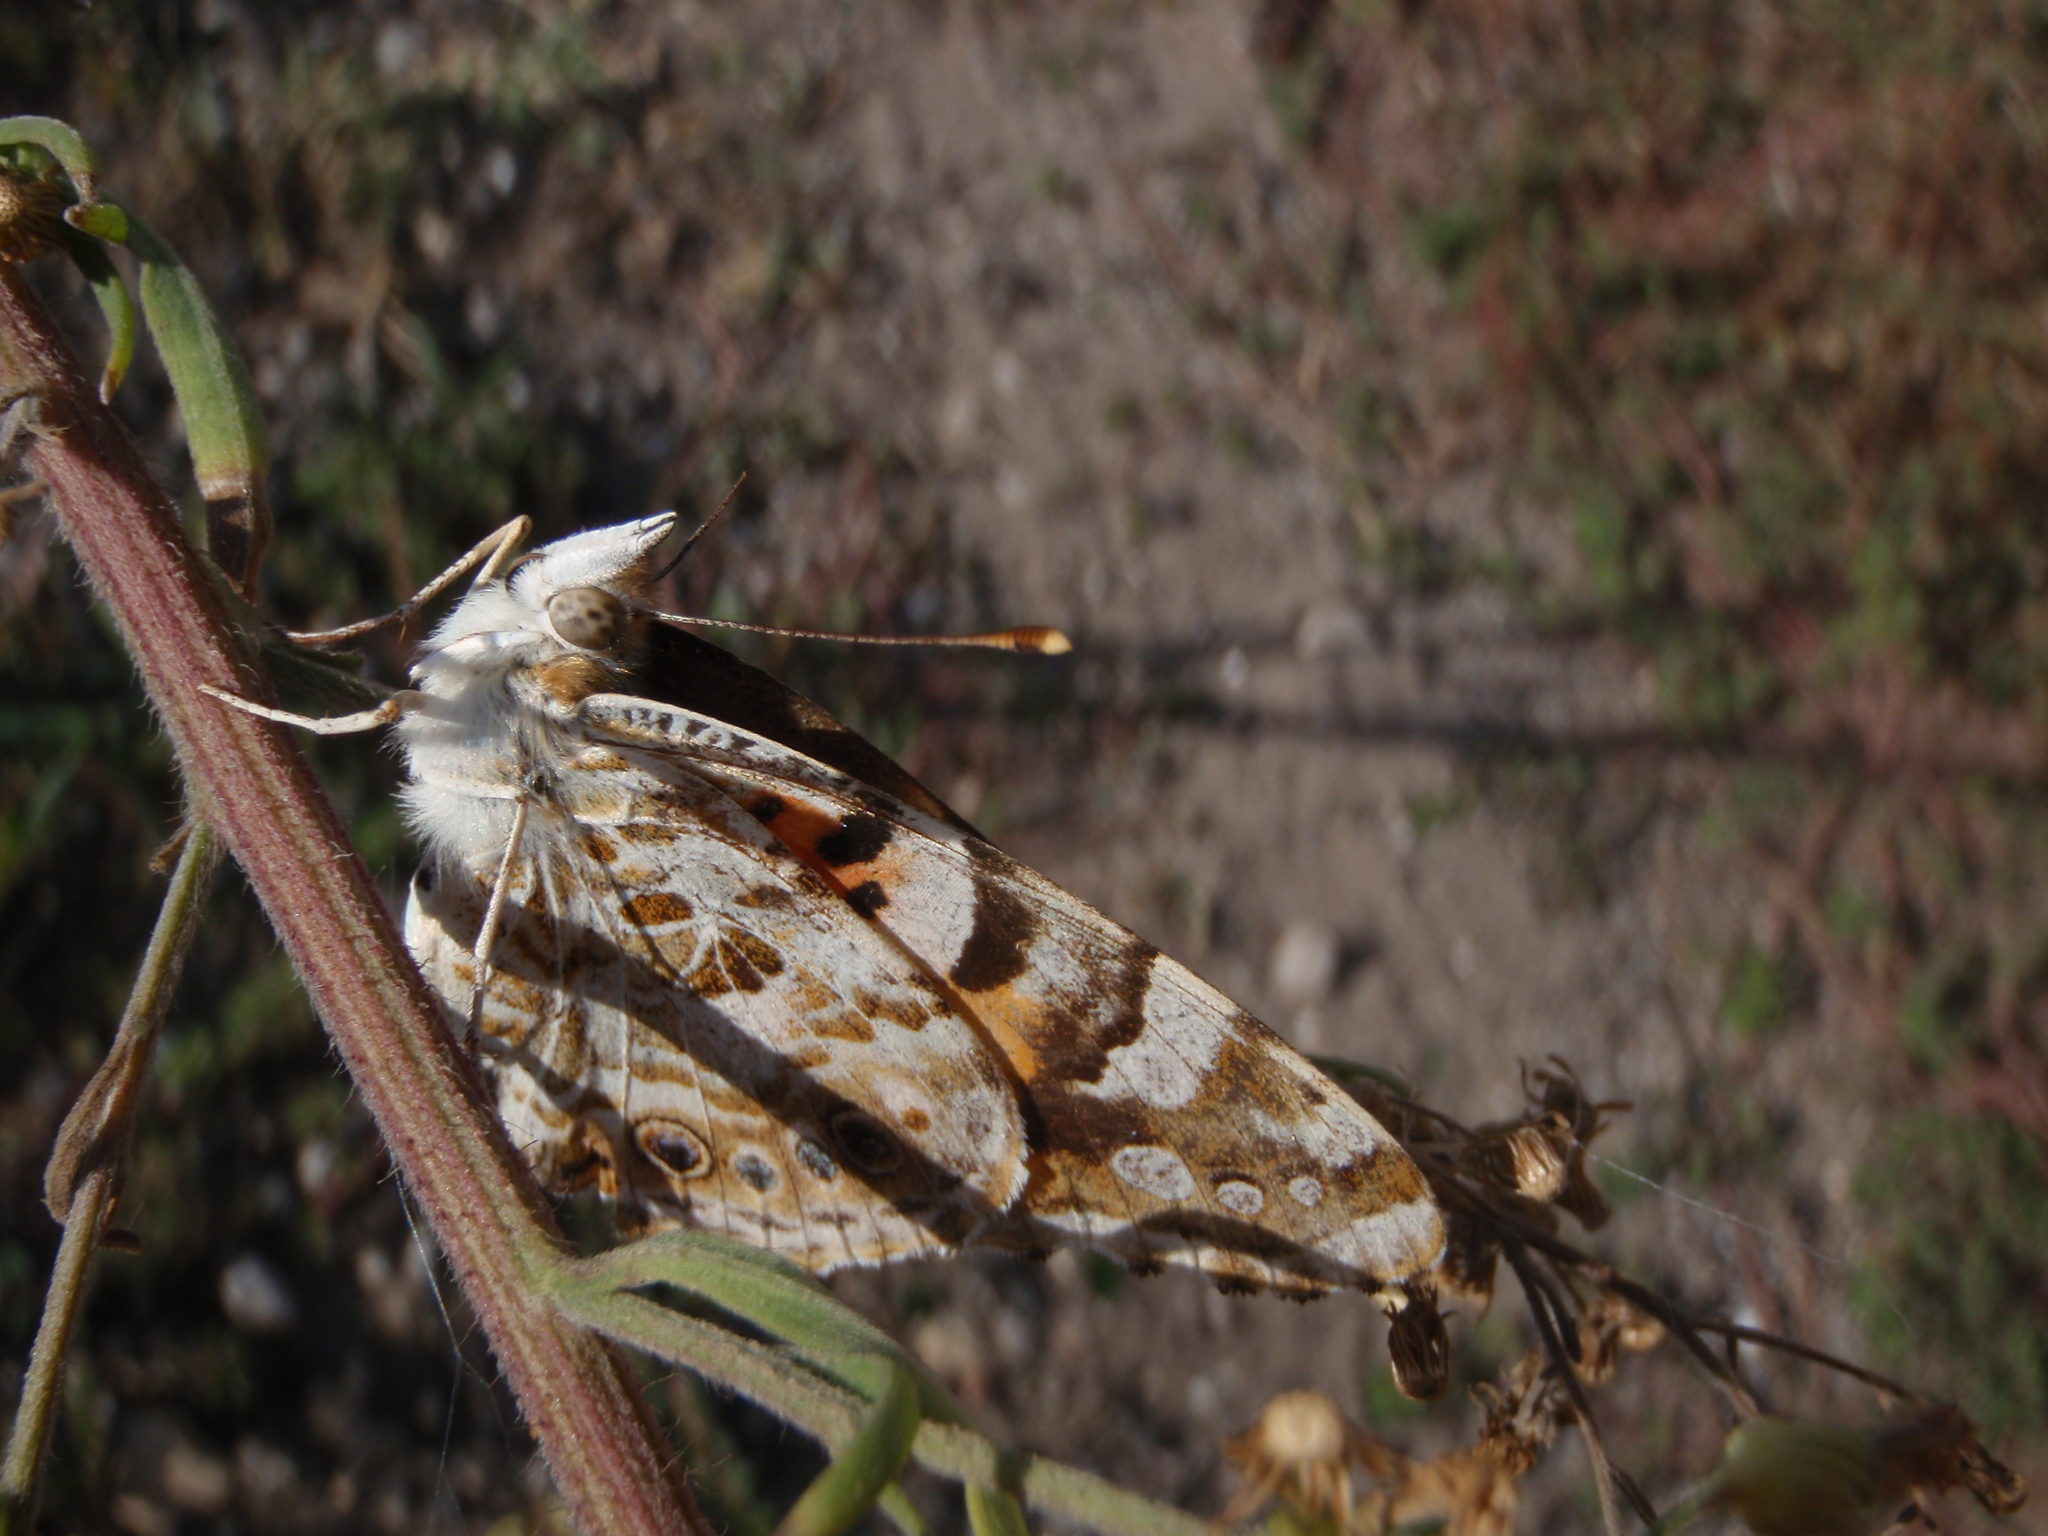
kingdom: Animalia
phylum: Arthropoda
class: Insecta
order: Lepidoptera
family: Nymphalidae
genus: Vanessa
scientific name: Vanessa cardui
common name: Painted lady
